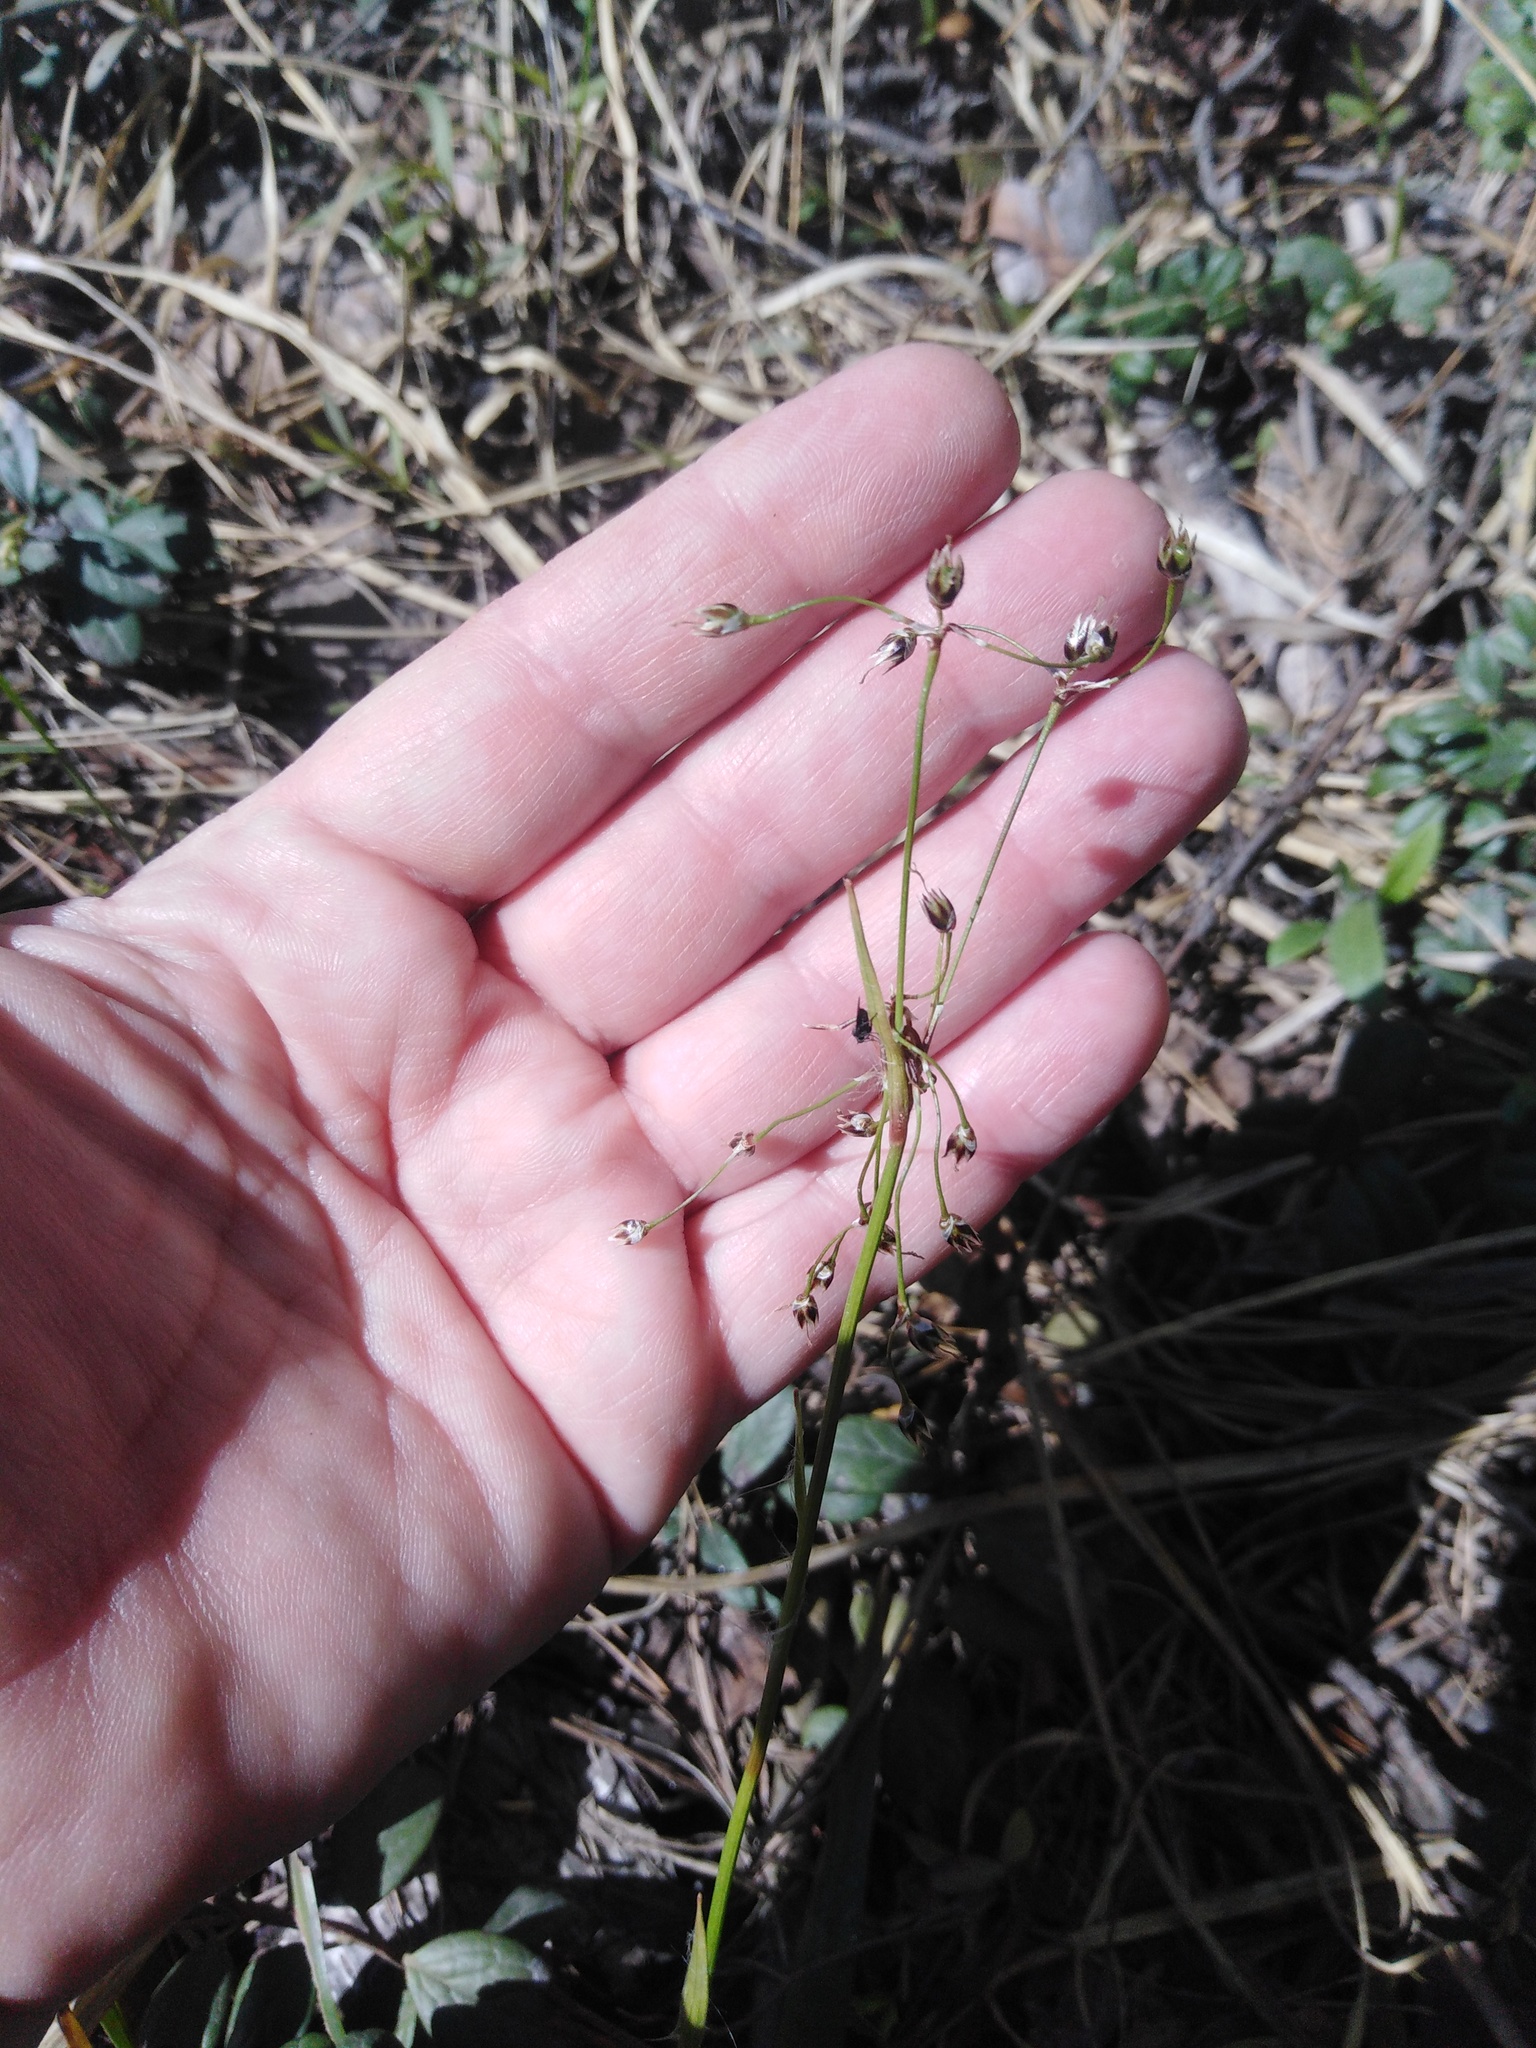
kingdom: Plantae
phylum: Tracheophyta
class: Liliopsida
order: Poales
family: Juncaceae
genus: Luzula
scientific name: Luzula pilosa
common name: Hairy wood-rush
